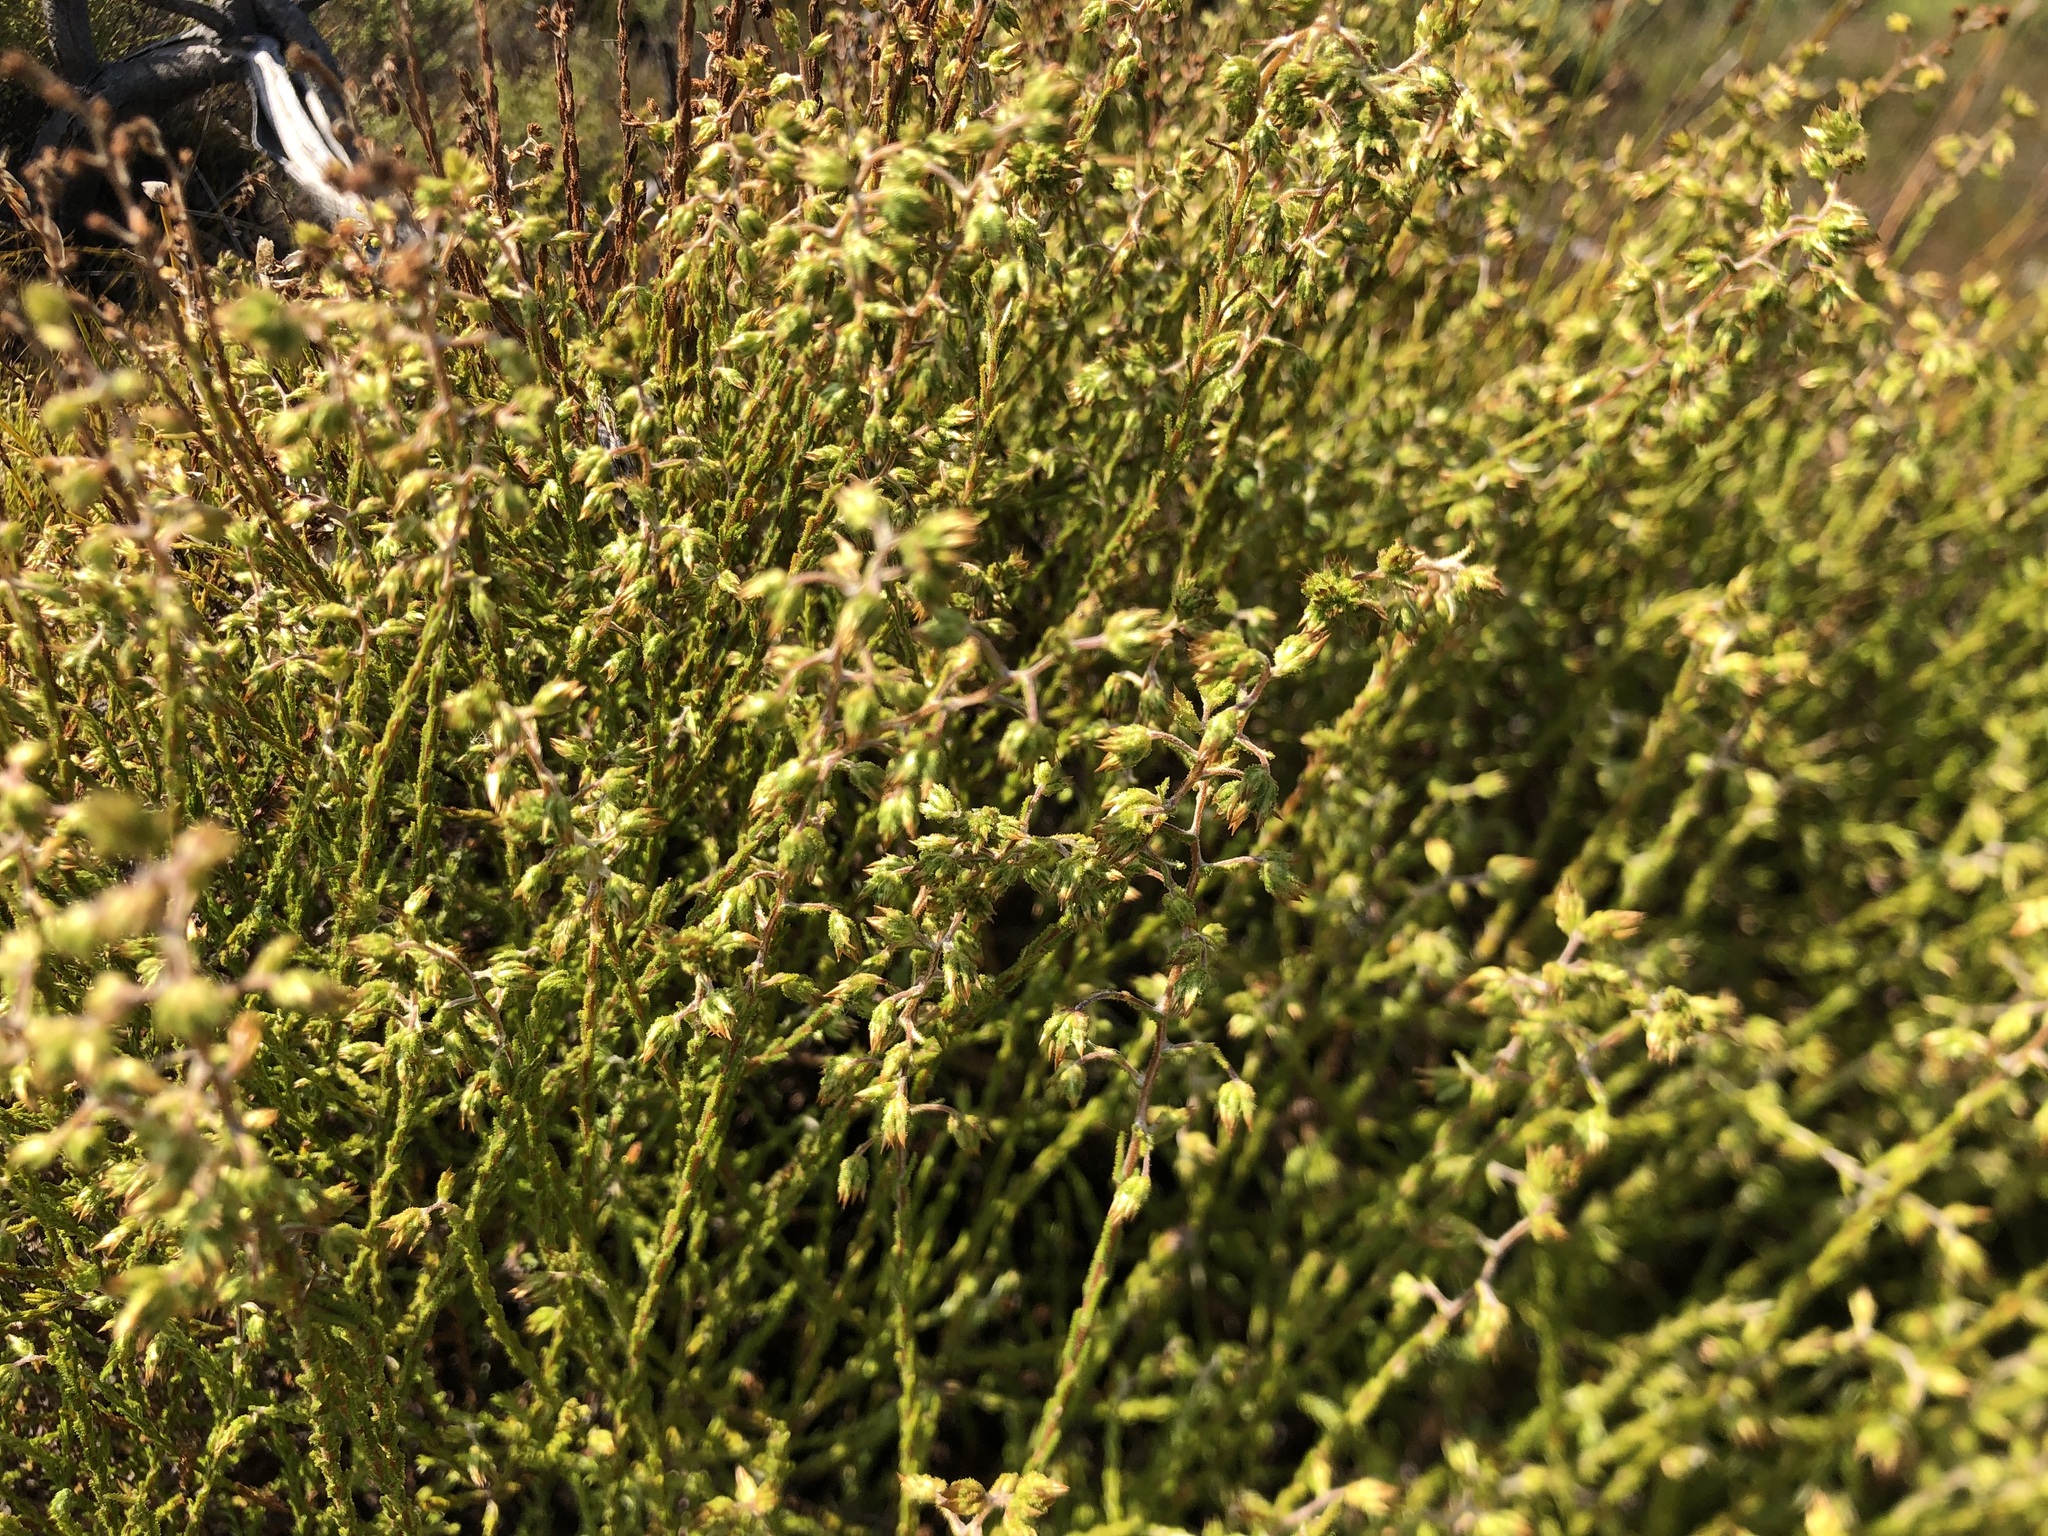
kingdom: Plantae
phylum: Tracheophyta
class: Magnoliopsida
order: Asterales
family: Asteraceae
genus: Myrovernix
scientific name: Myrovernix scaber
